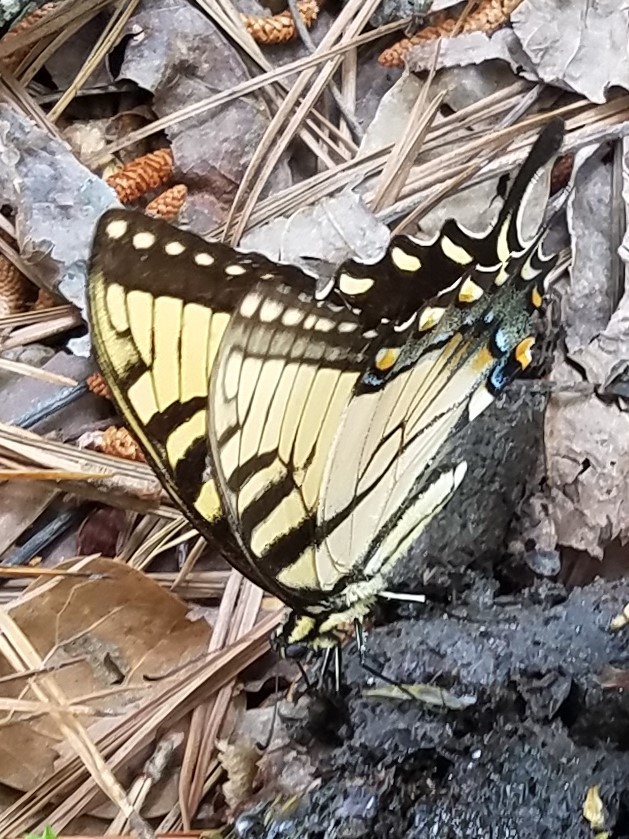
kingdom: Animalia
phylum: Arthropoda
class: Insecta
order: Lepidoptera
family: Papilionidae
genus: Papilio
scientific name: Papilio glaucus
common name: Tiger swallowtail
